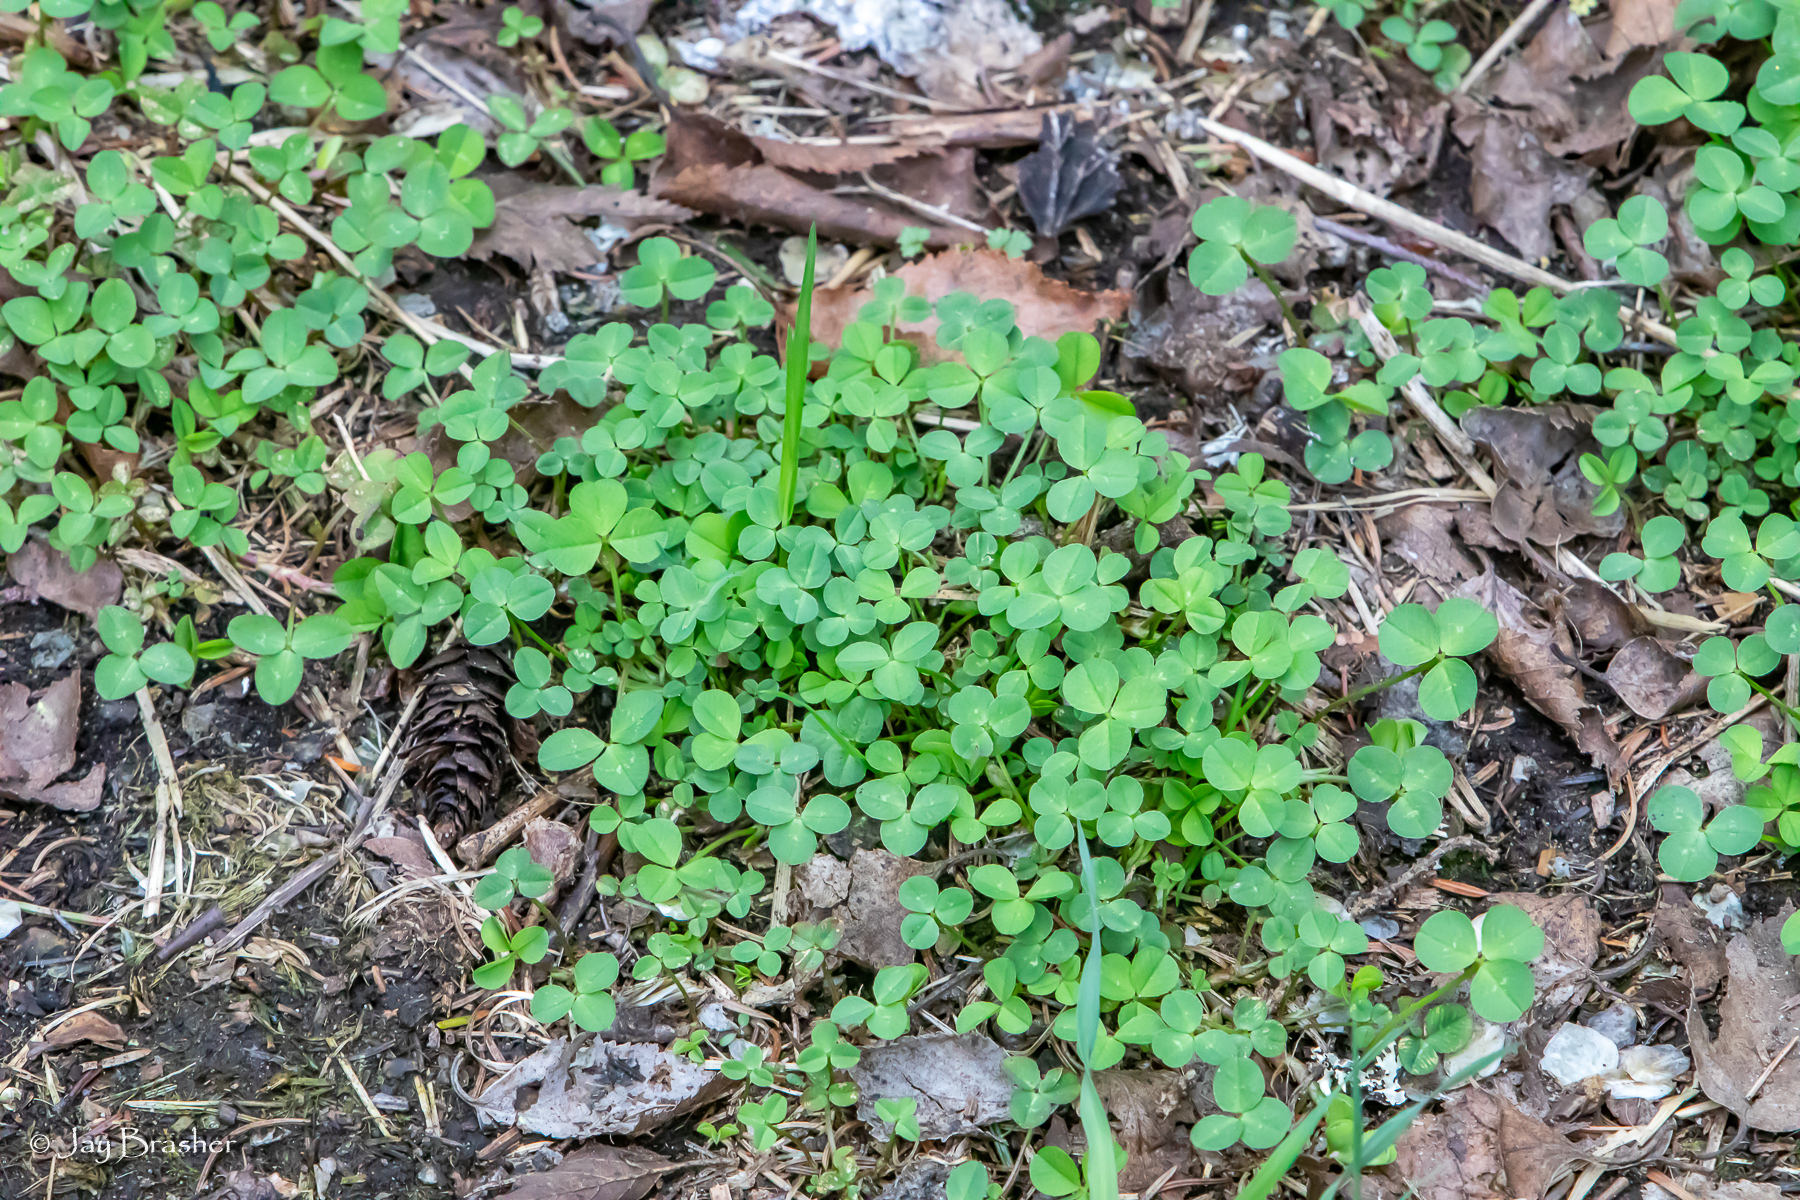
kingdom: Plantae
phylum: Tracheophyta
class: Magnoliopsida
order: Fabales
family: Fabaceae
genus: Trifolium
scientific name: Trifolium repens
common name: White clover
